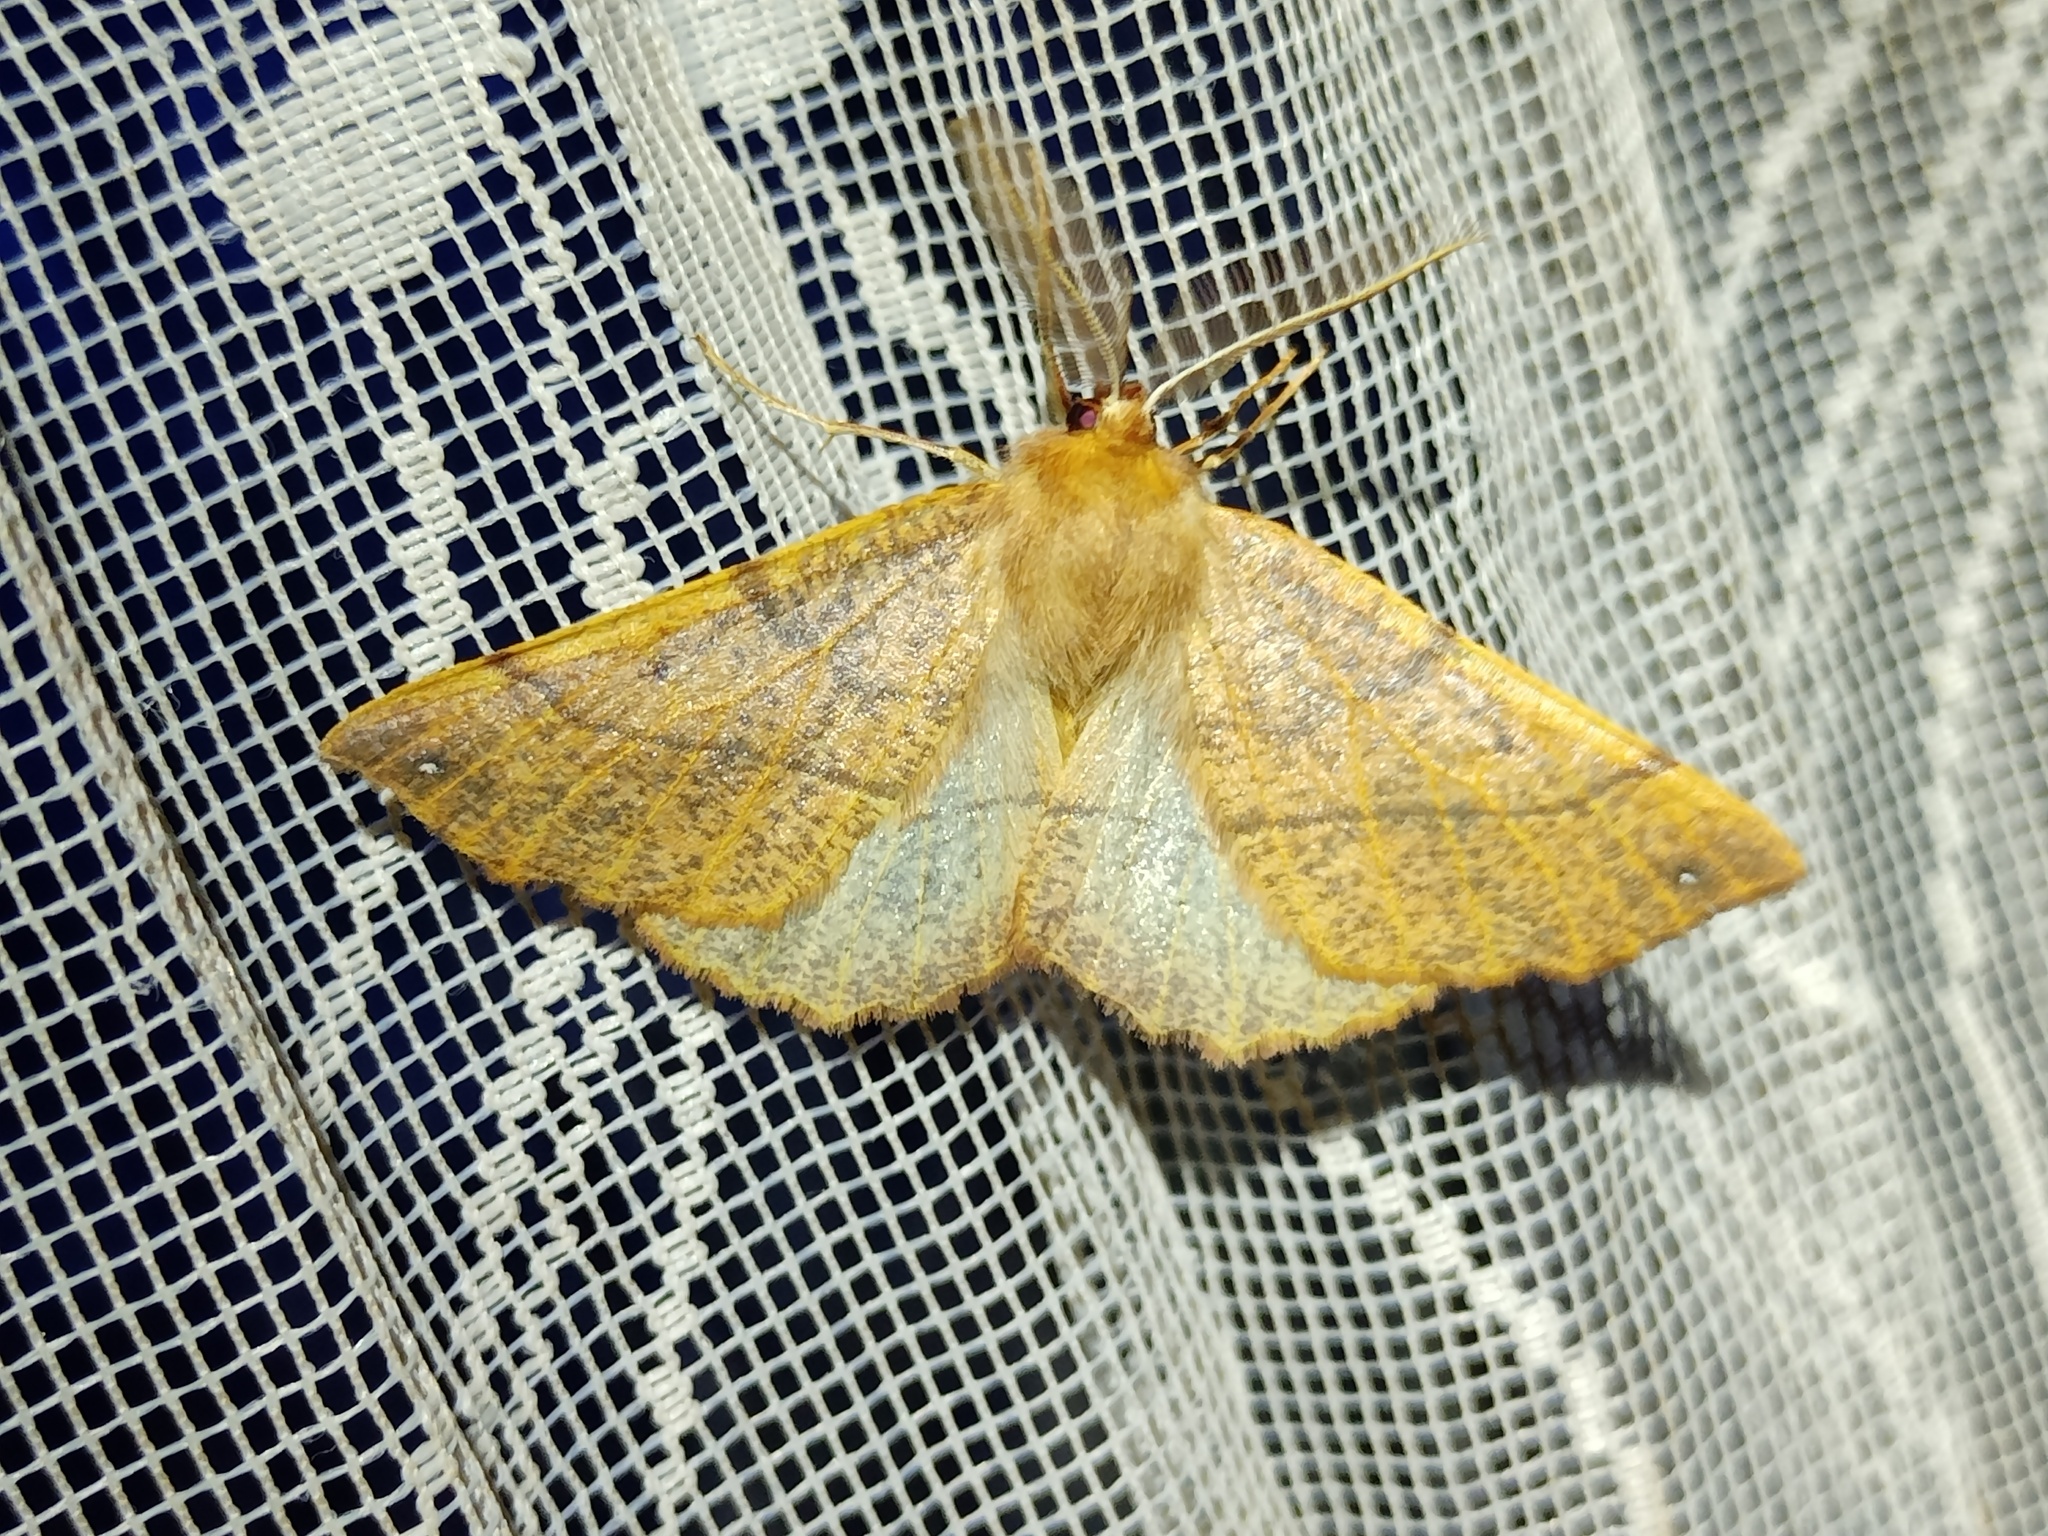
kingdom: Animalia
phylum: Arthropoda
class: Insecta
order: Lepidoptera
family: Geometridae
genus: Colotois
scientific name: Colotois pennaria
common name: Feathered thorn
